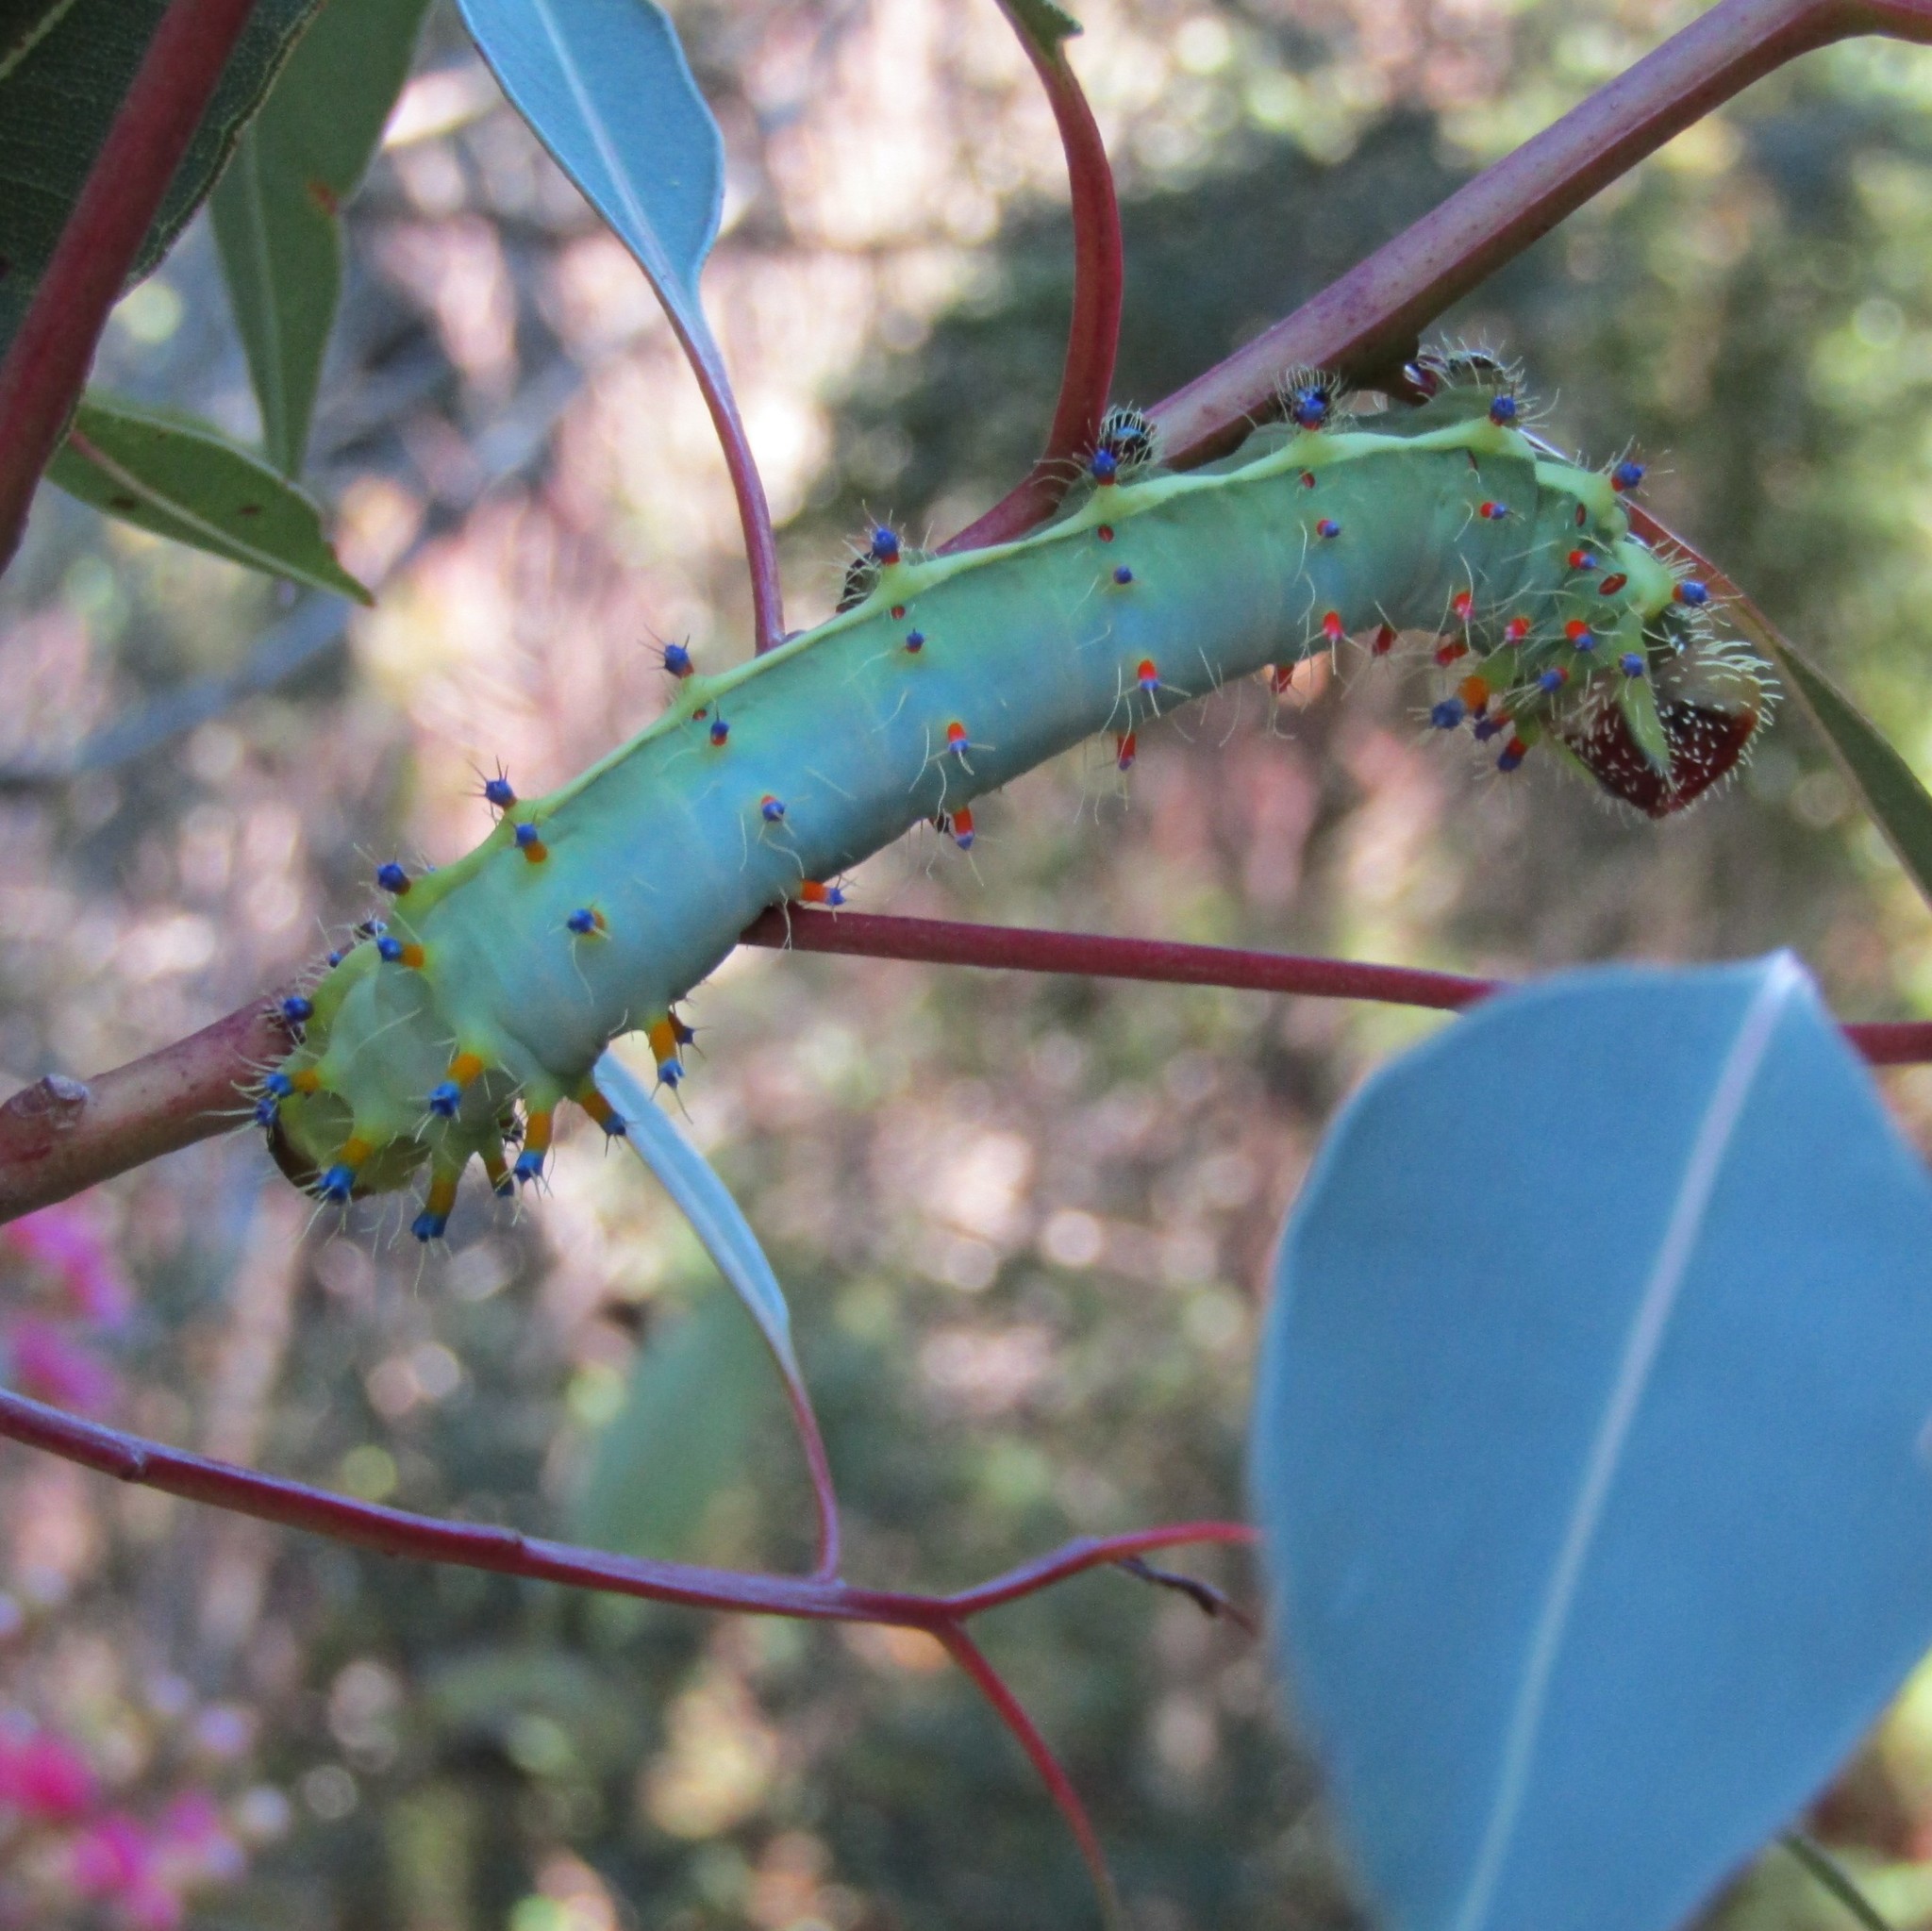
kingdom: Animalia
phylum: Arthropoda
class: Insecta
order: Lepidoptera
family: Saturniidae
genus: Opodiphthera
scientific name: Opodiphthera
